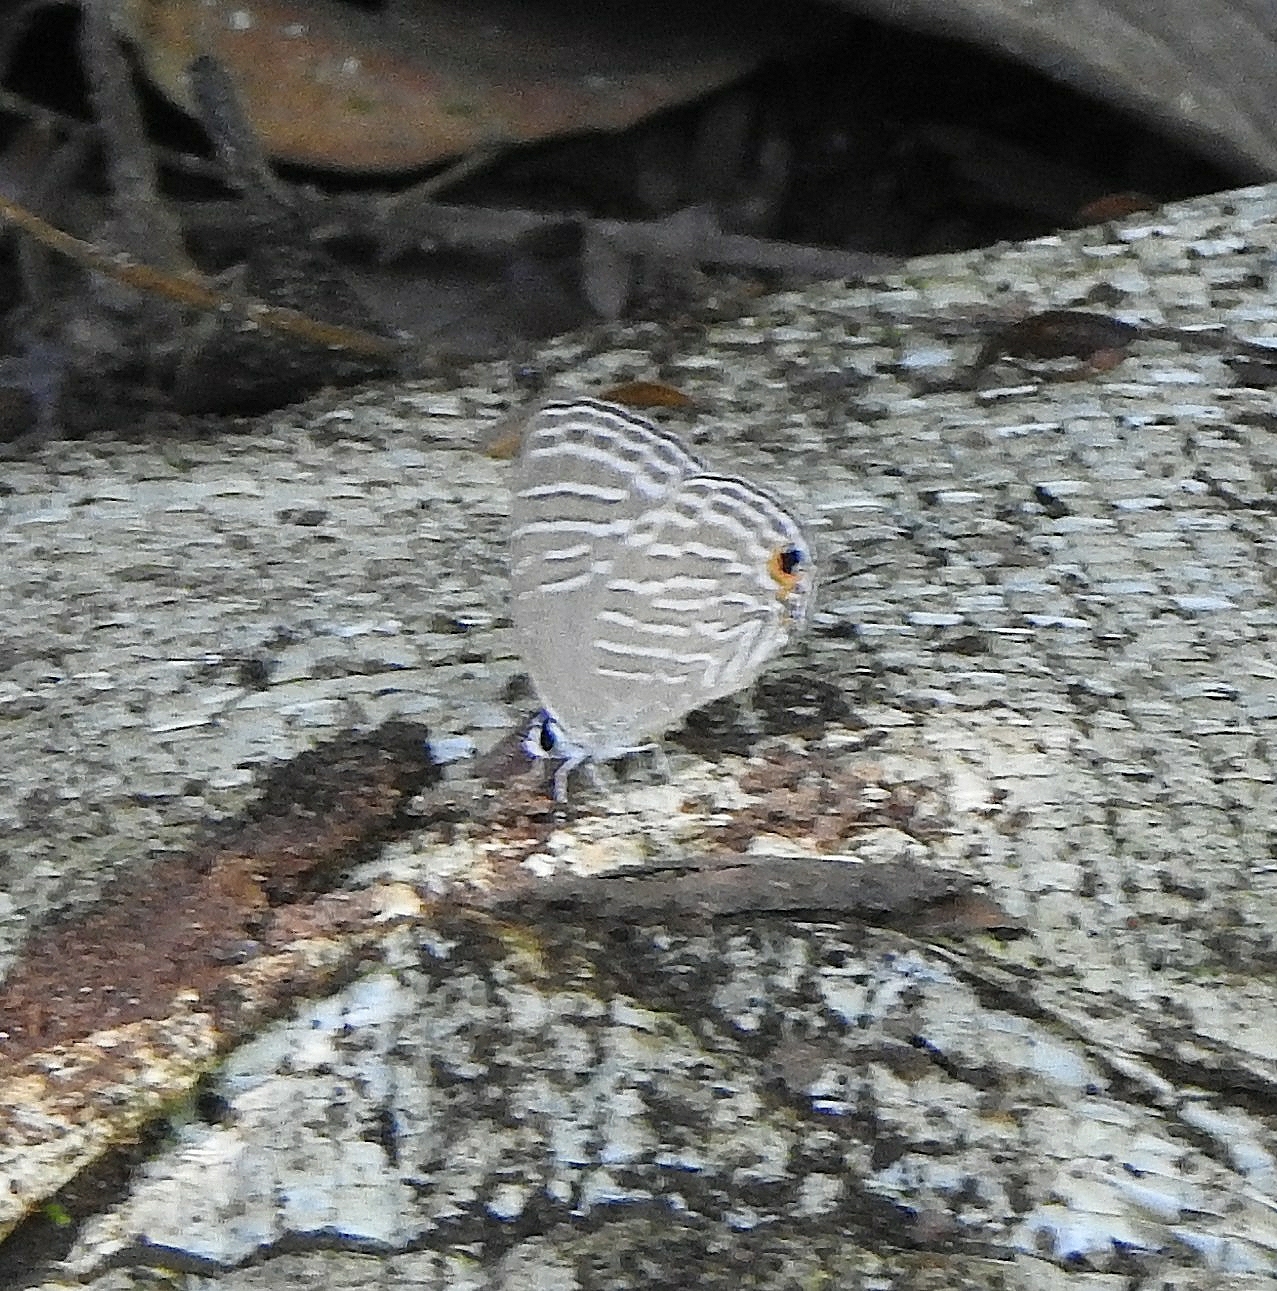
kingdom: Animalia
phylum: Arthropoda
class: Insecta
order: Lepidoptera
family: Lycaenidae
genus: Jamides
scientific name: Jamides celeno
